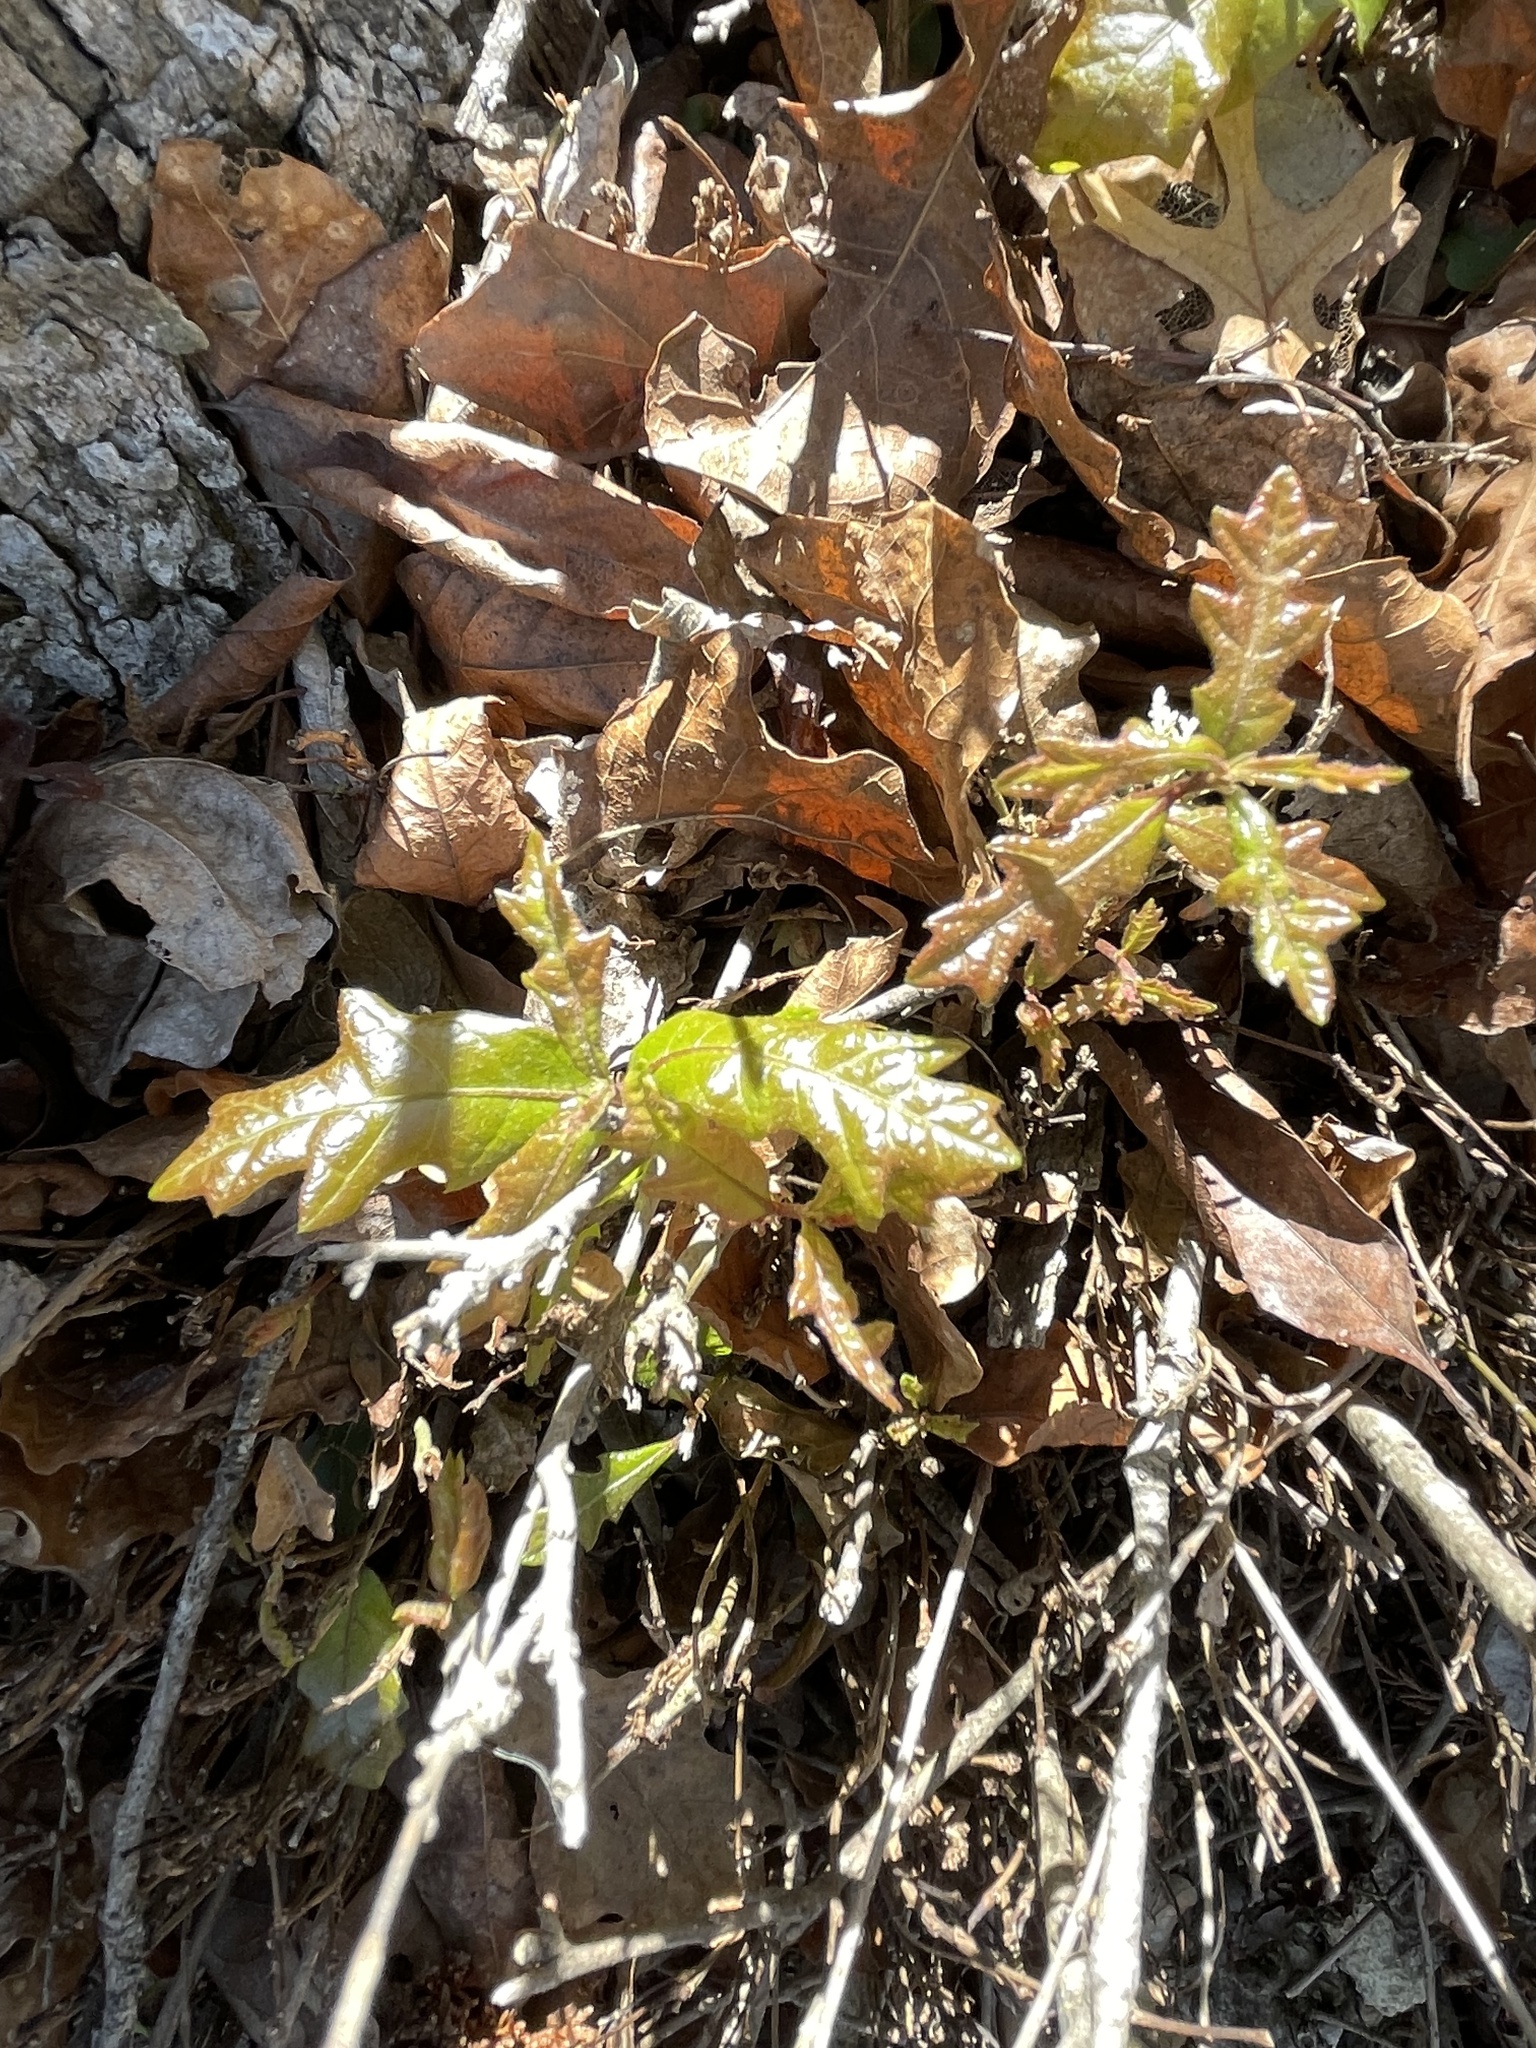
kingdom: Plantae
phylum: Tracheophyta
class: Magnoliopsida
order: Fagales
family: Fagaceae
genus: Quercus
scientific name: Quercus sinuata
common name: Durand oak
